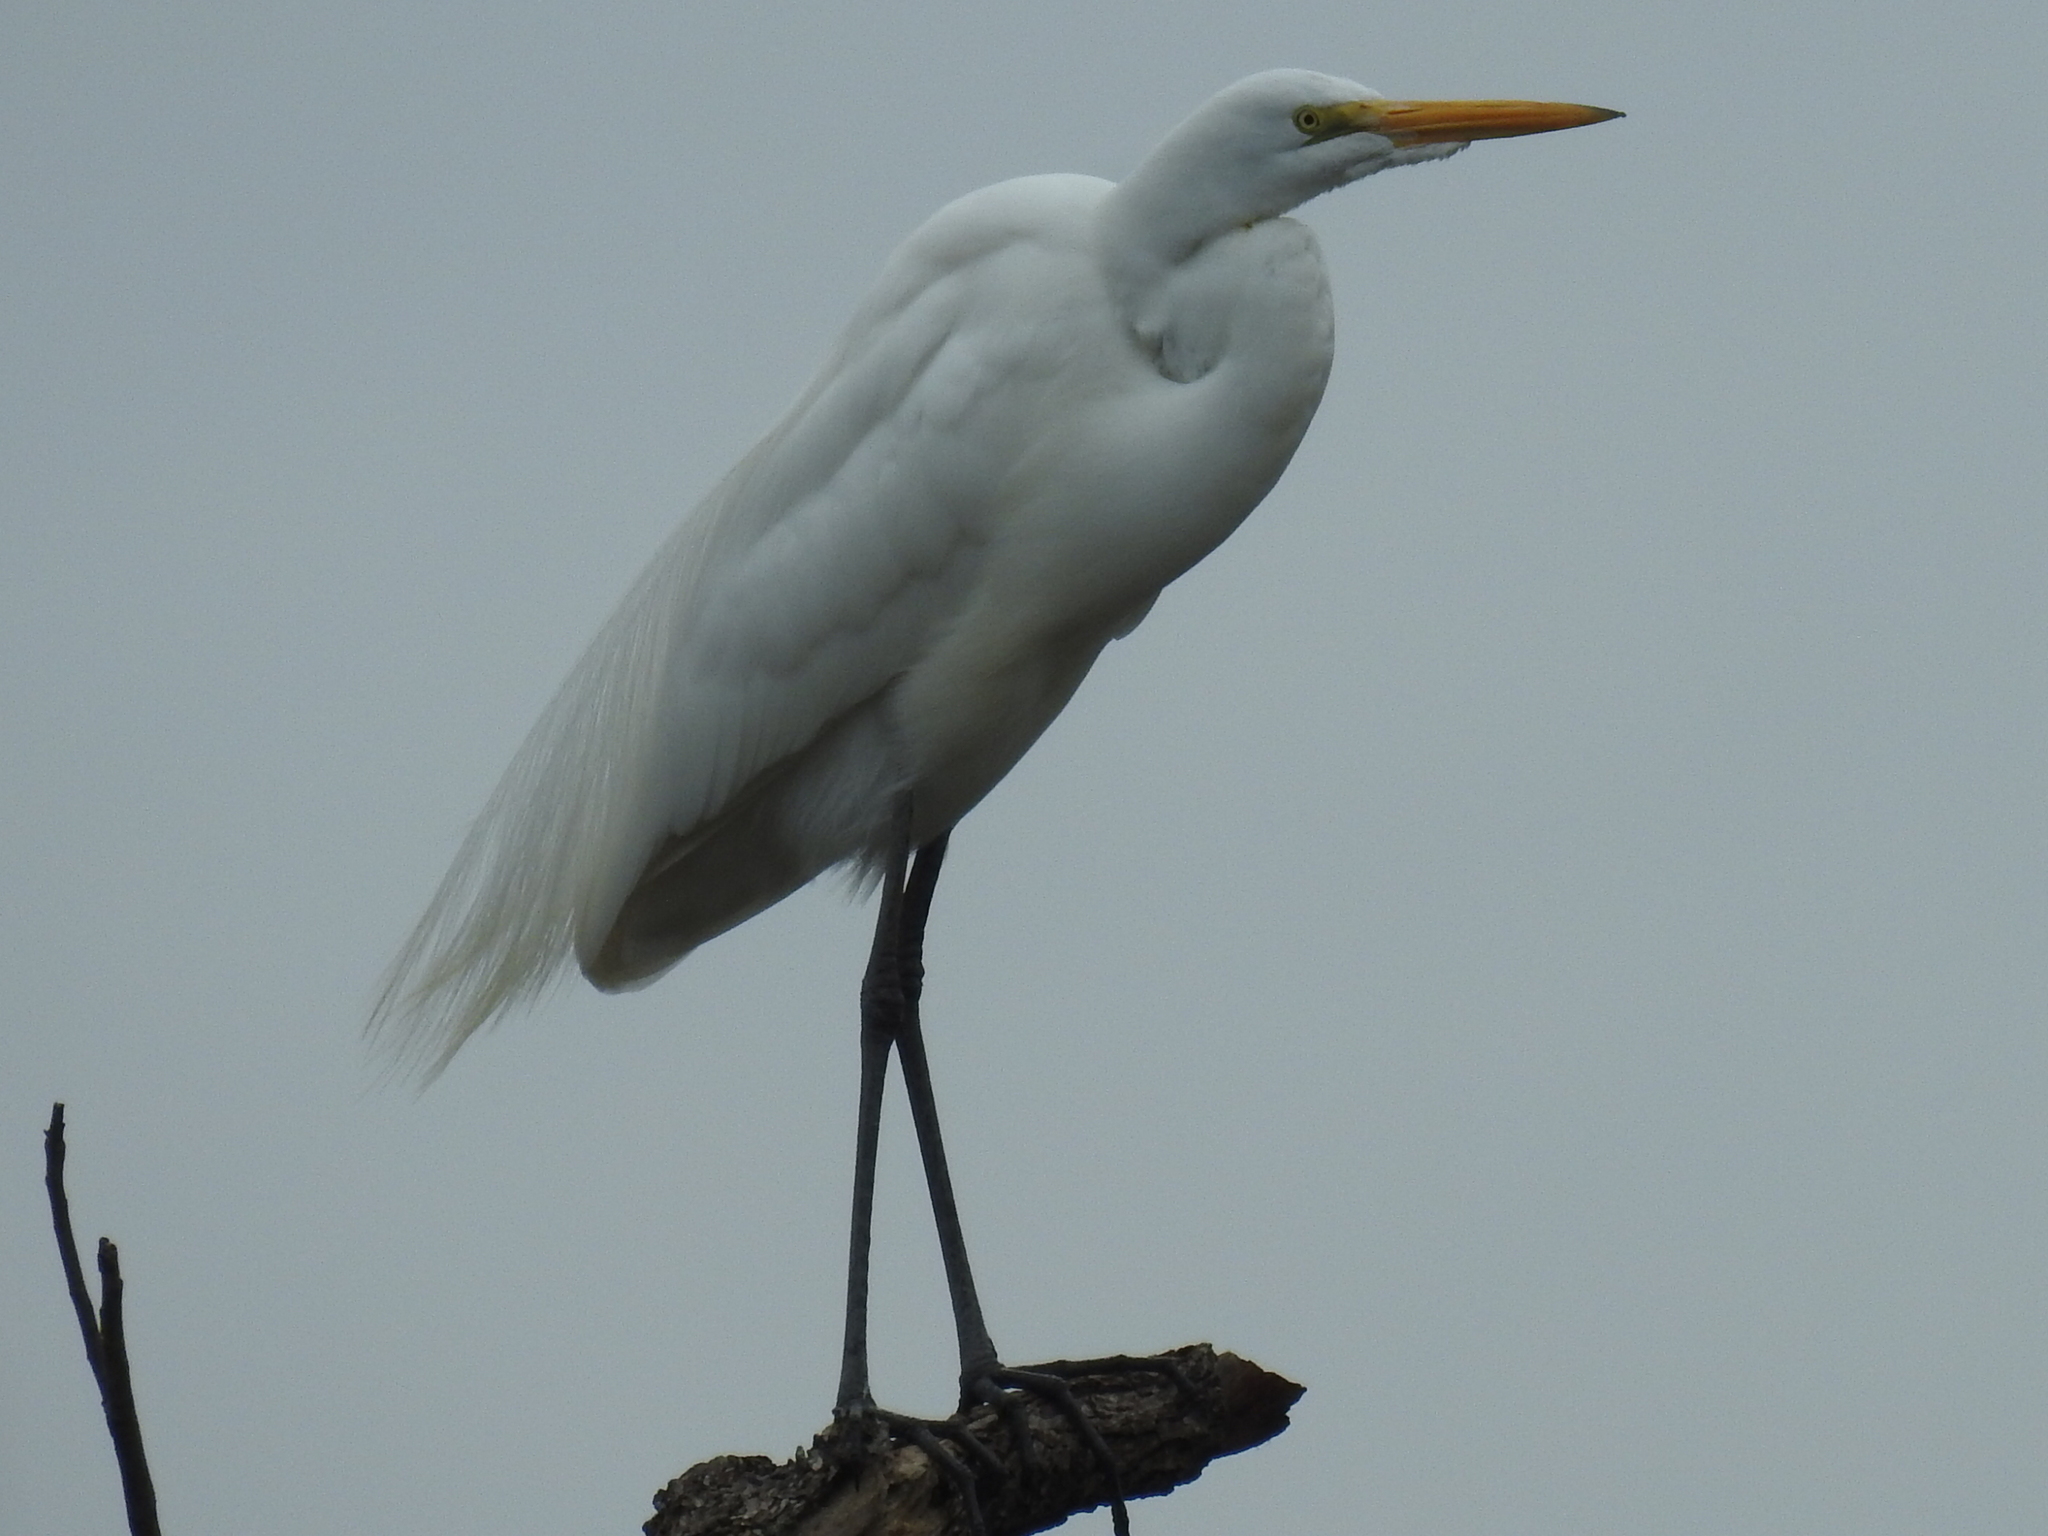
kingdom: Animalia
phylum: Chordata
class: Aves
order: Pelecaniformes
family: Ardeidae
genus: Ardea
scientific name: Ardea alba
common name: Great egret
